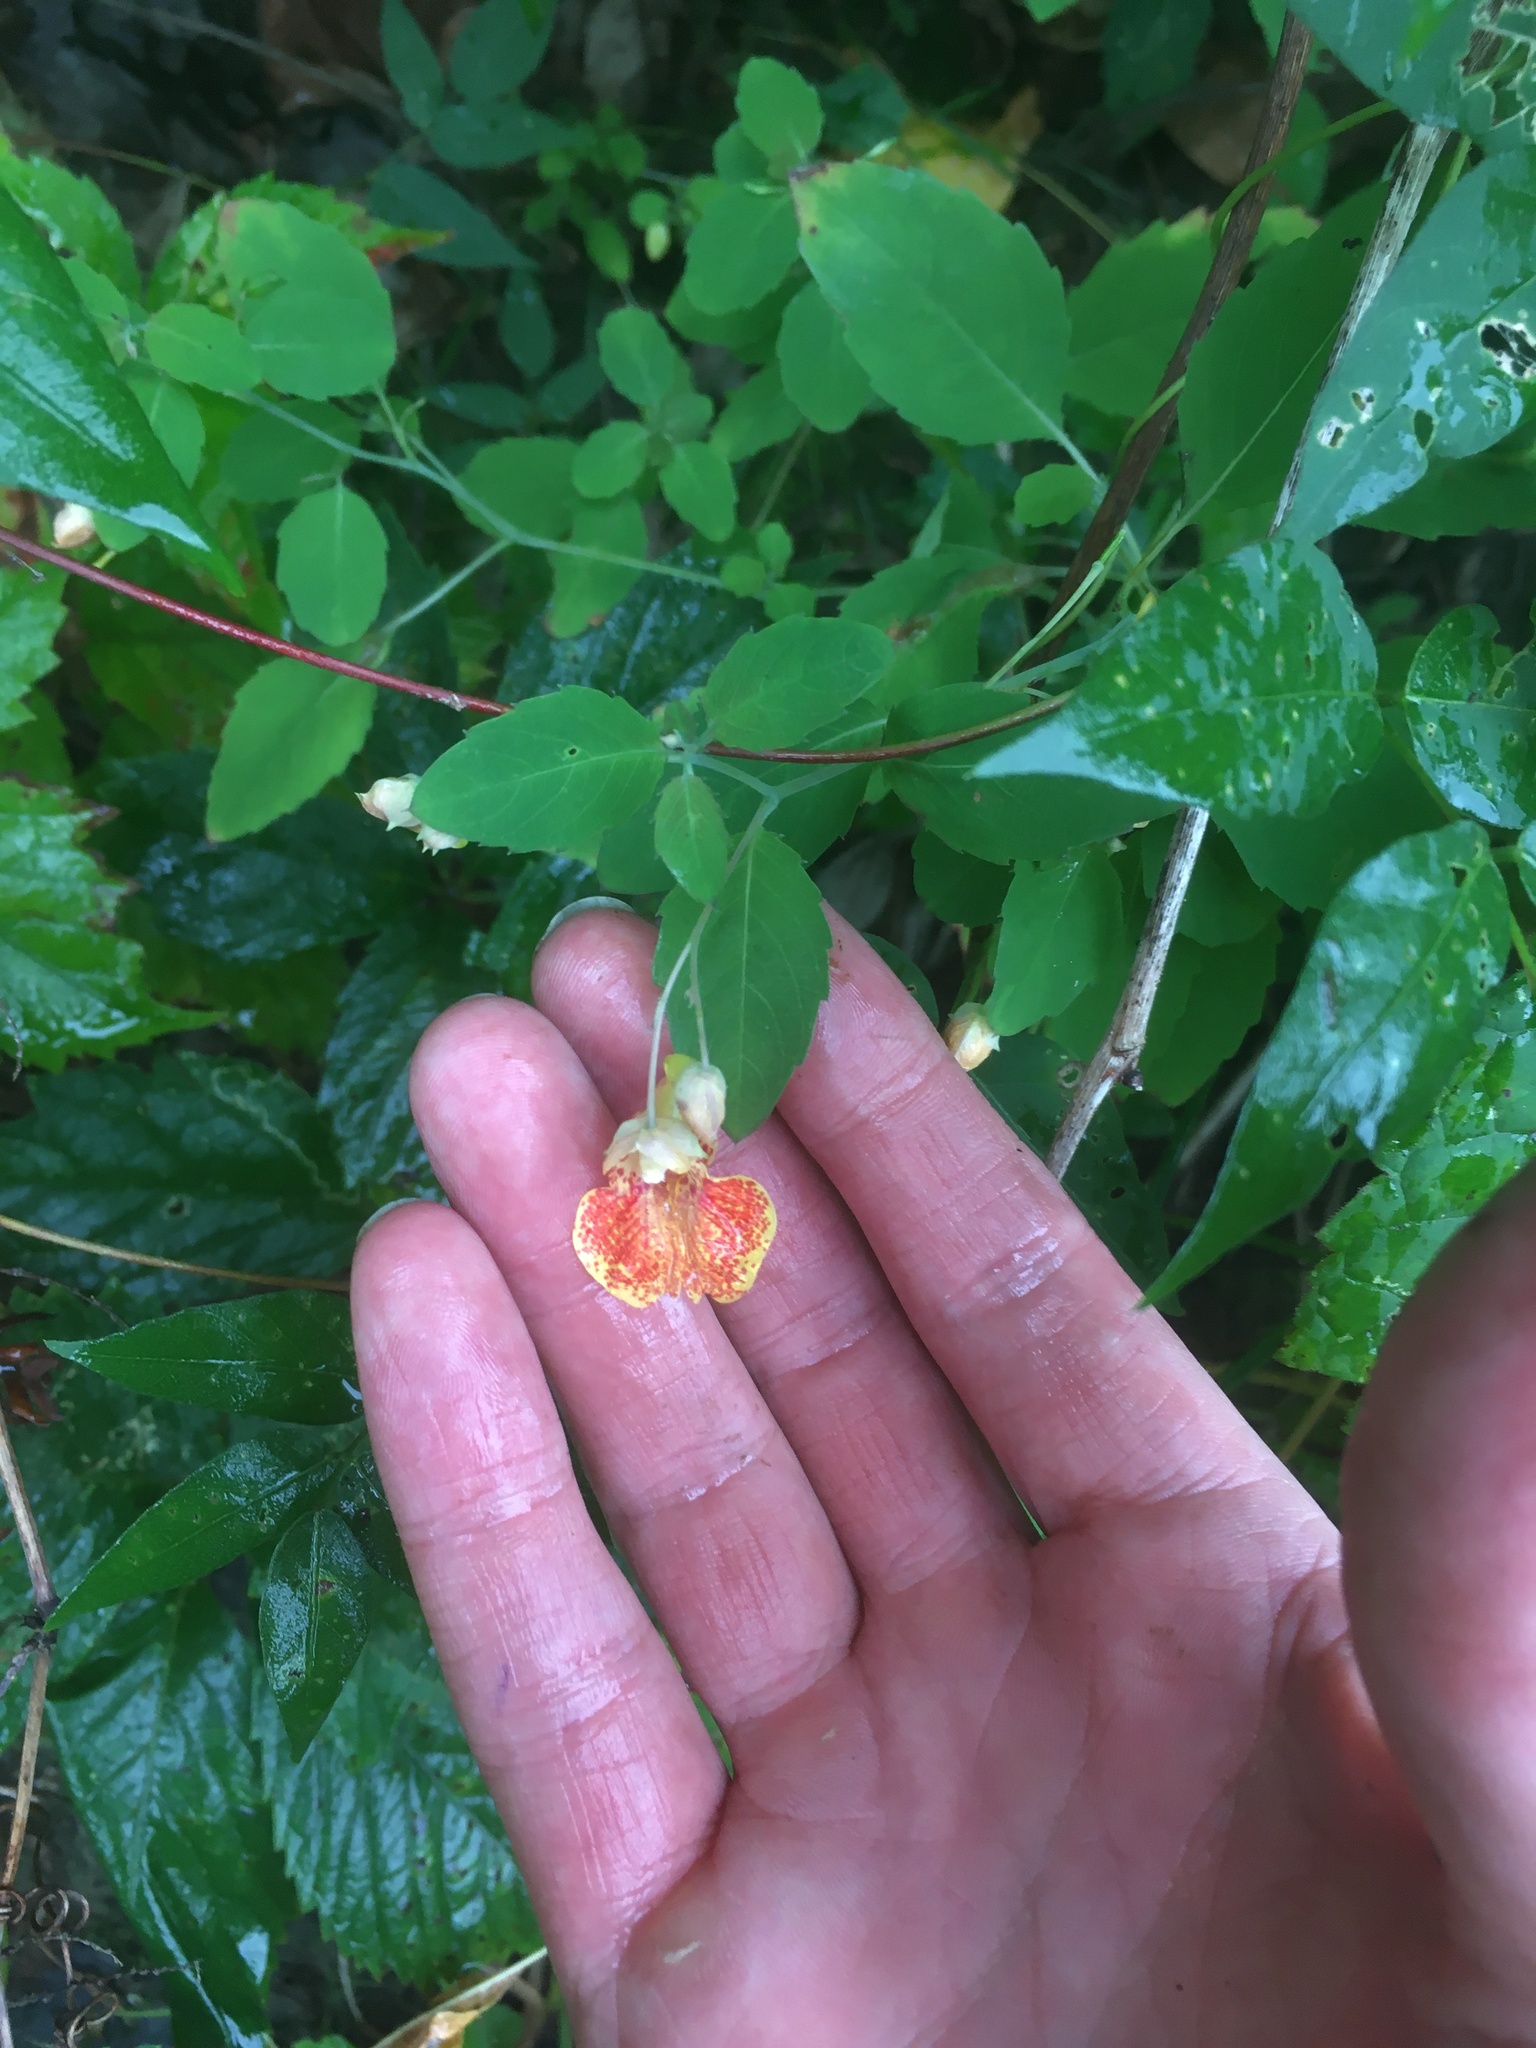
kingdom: Plantae
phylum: Tracheophyta
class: Magnoliopsida
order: Ericales
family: Balsaminaceae
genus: Impatiens
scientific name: Impatiens capensis
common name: Orange balsam
